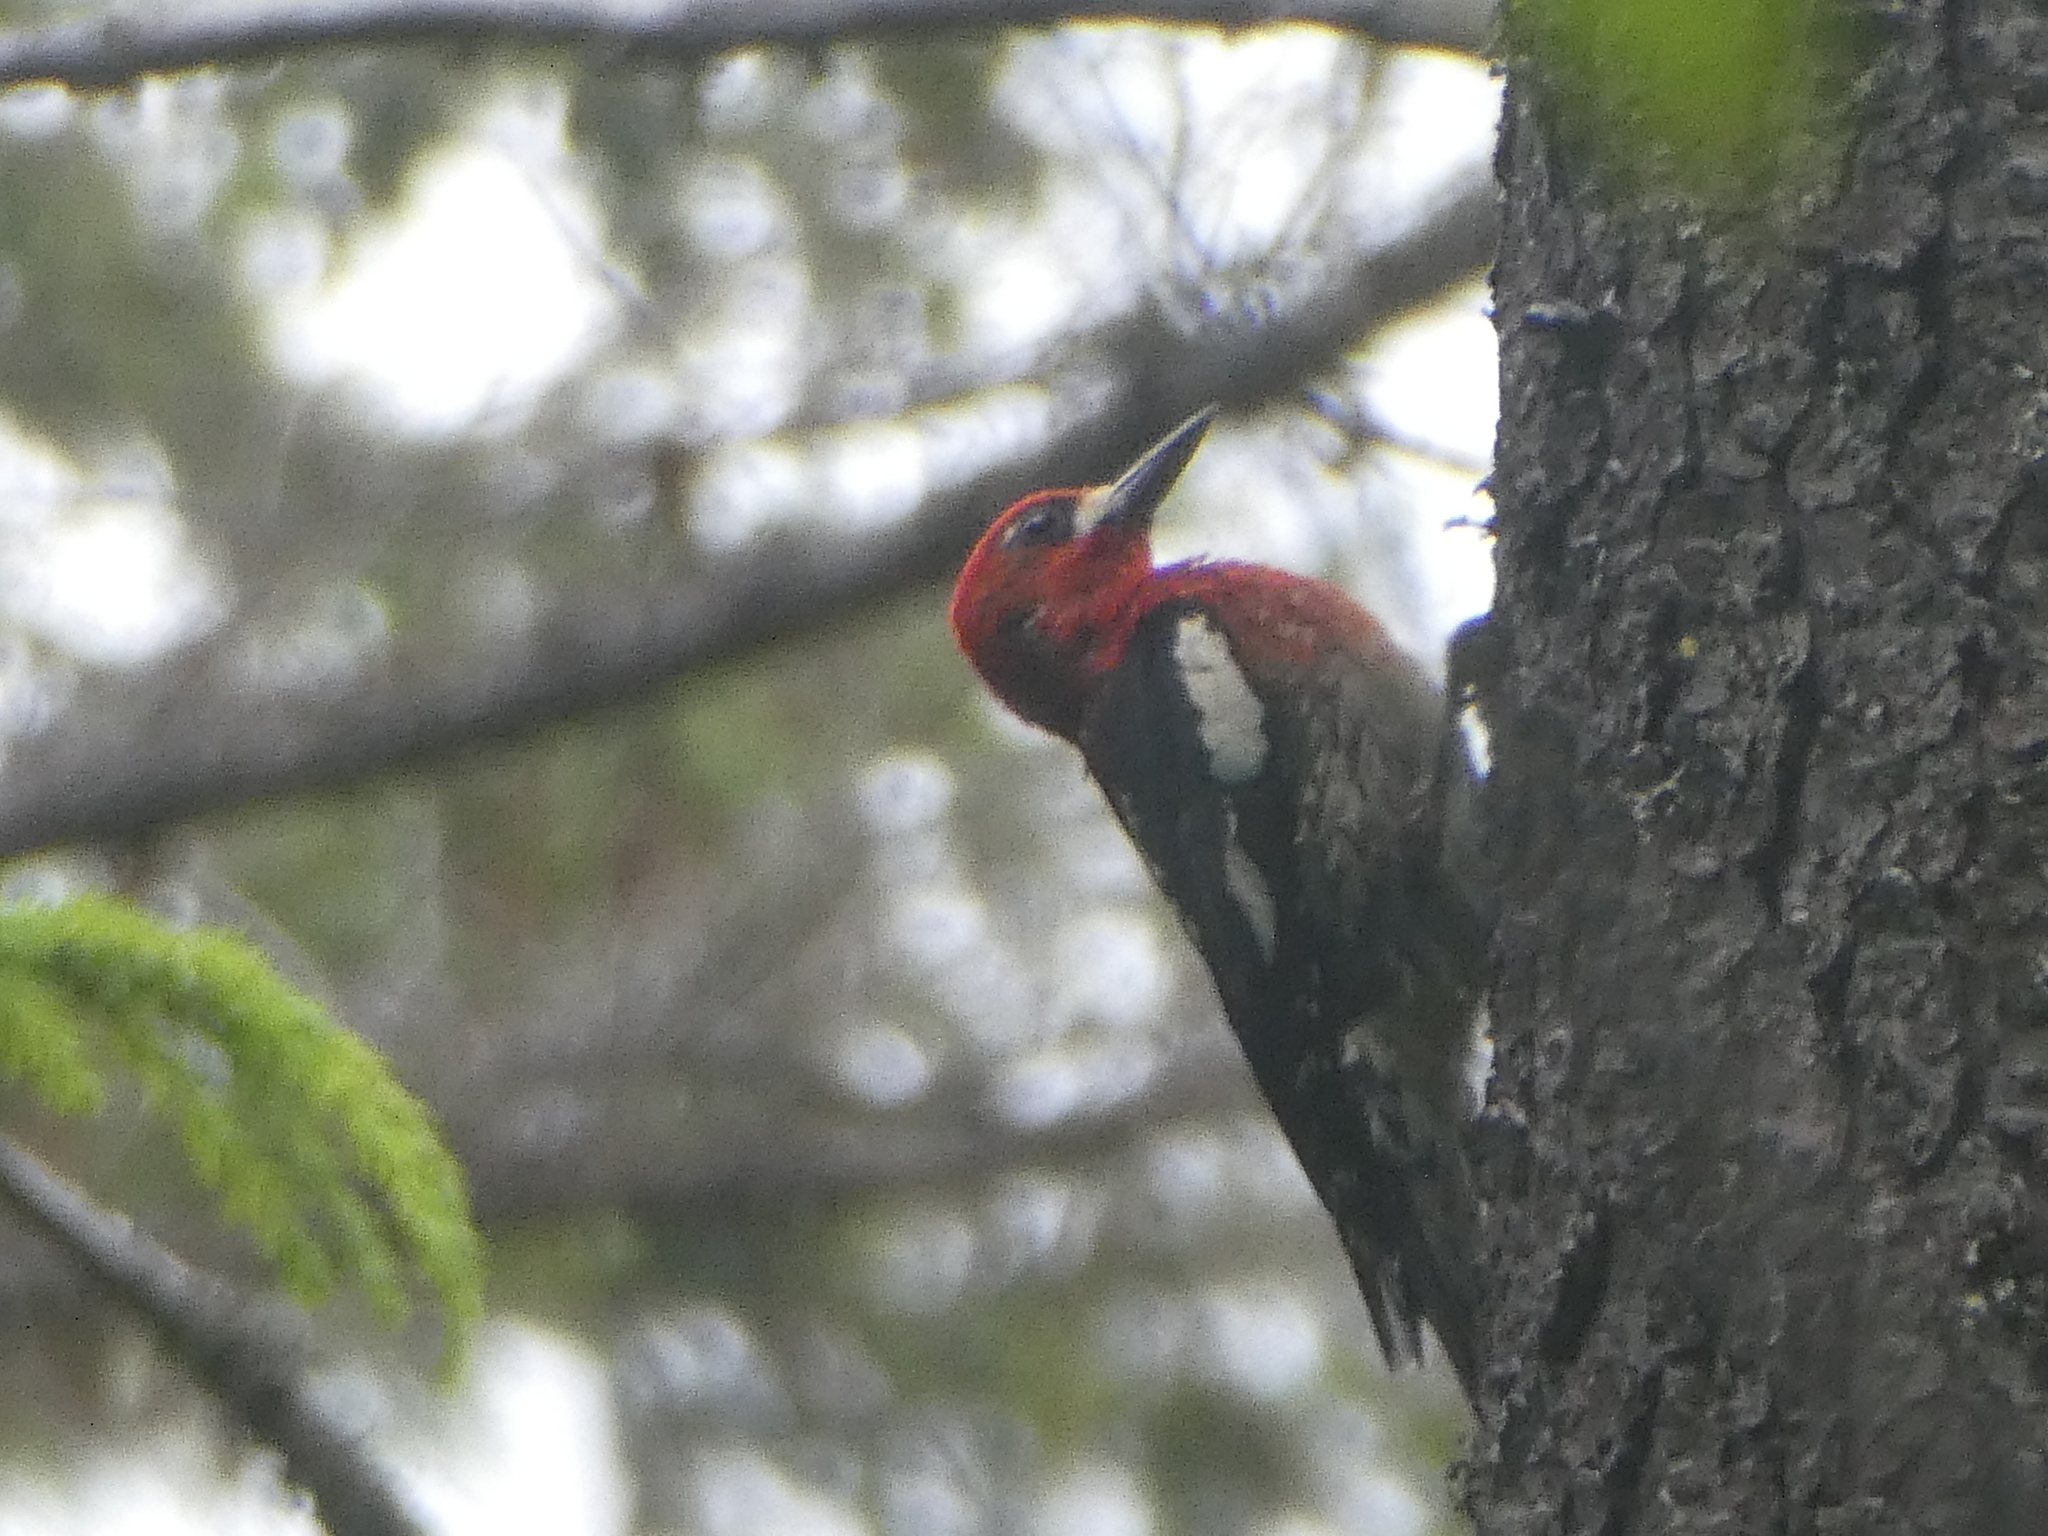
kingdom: Animalia
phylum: Chordata
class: Aves
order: Piciformes
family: Picidae
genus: Sphyrapicus
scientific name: Sphyrapicus ruber
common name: Red-breasted sapsucker
